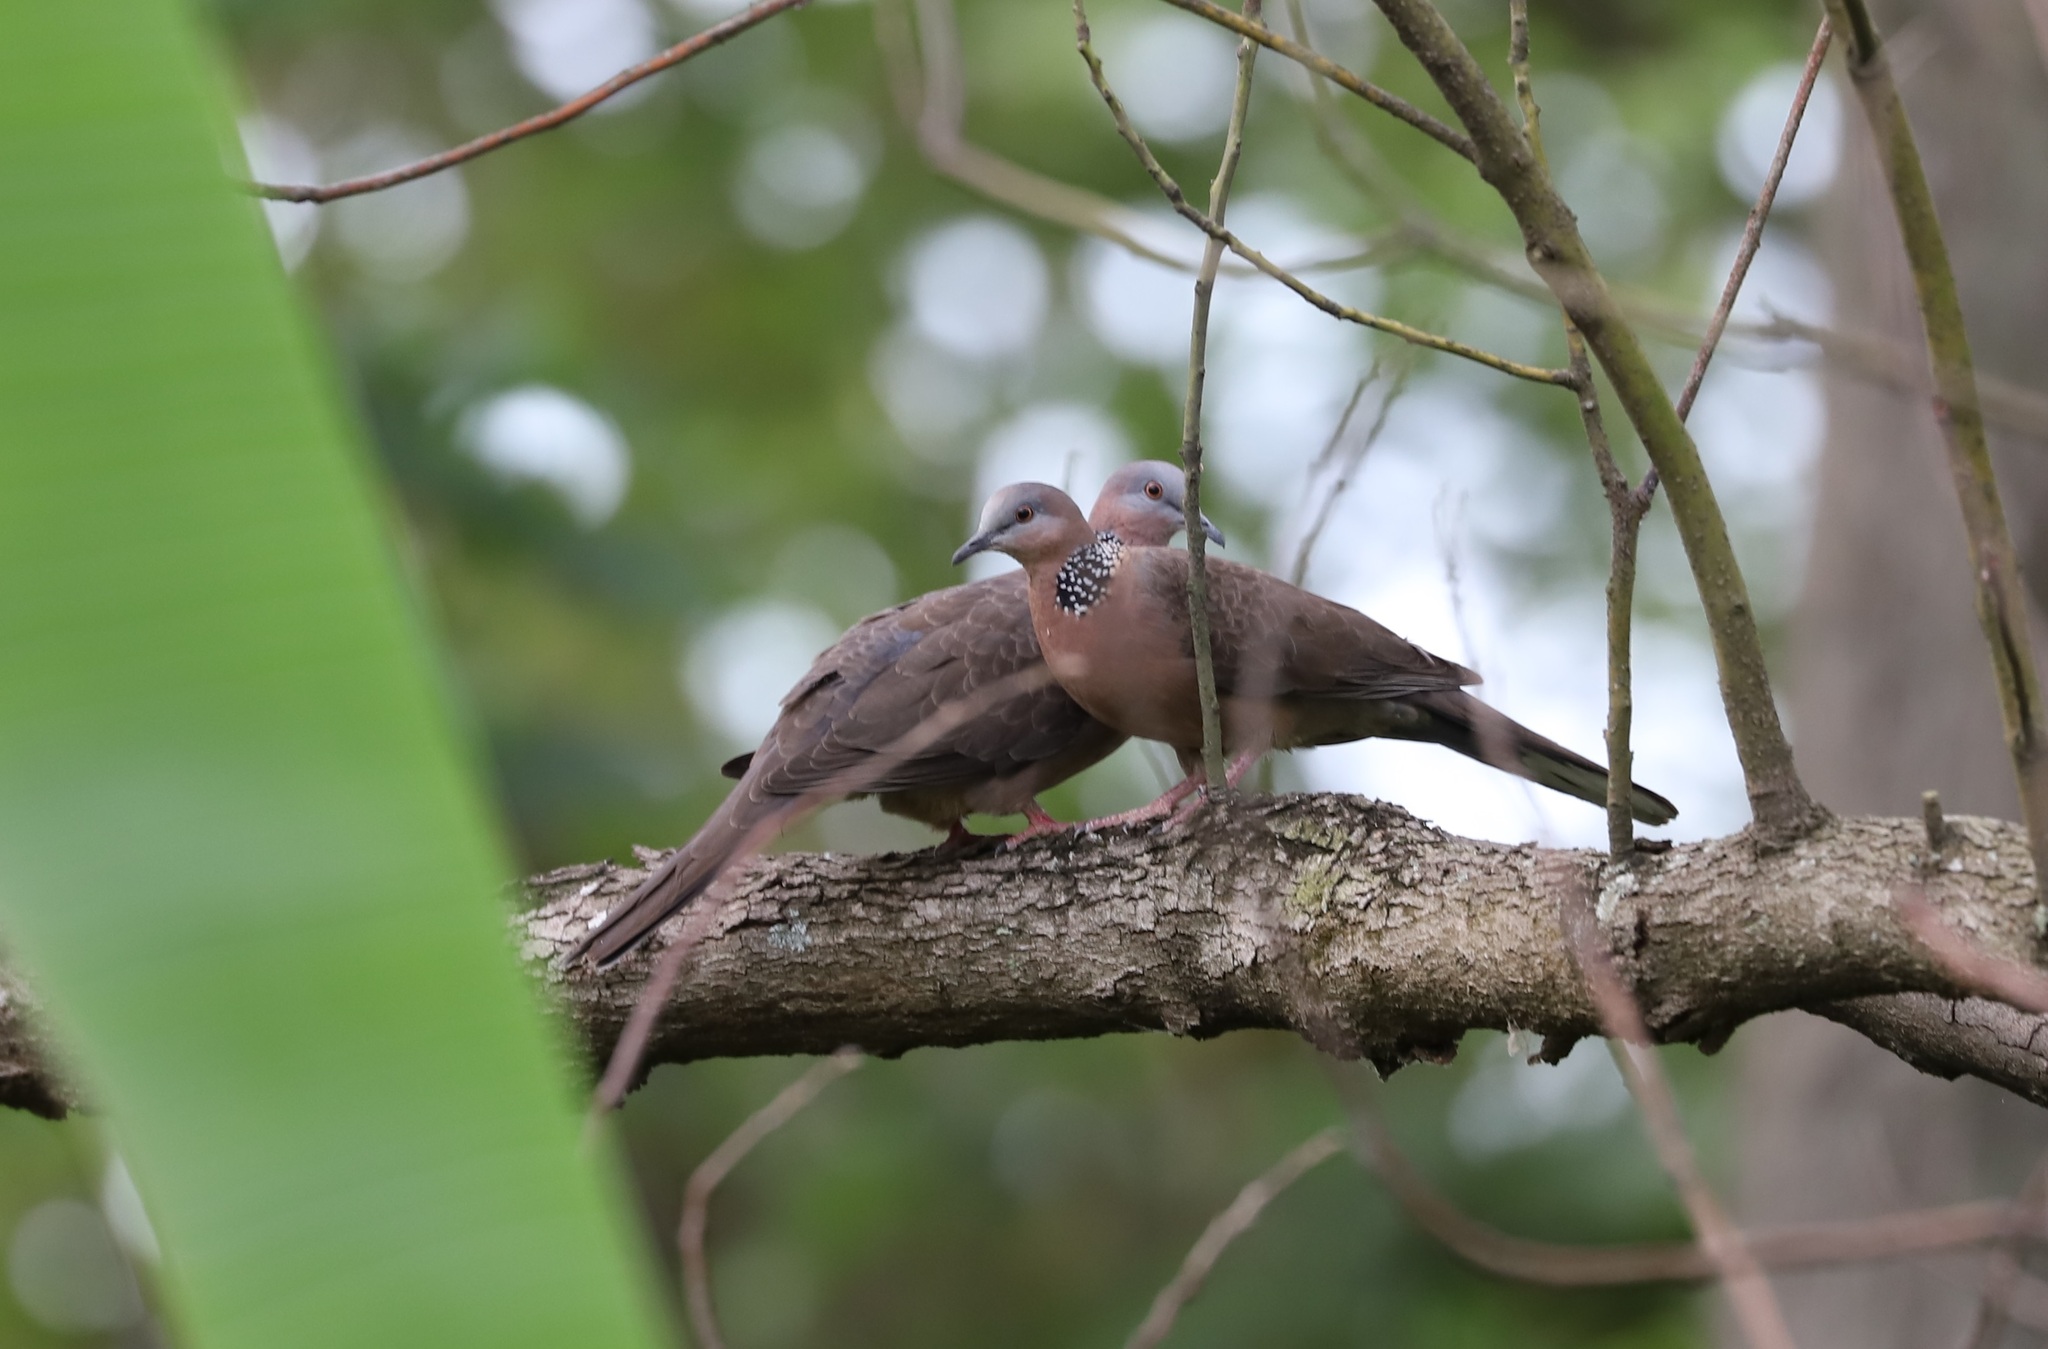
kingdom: Animalia
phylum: Chordata
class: Aves
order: Columbiformes
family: Columbidae
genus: Spilopelia
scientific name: Spilopelia chinensis
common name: Spotted dove
